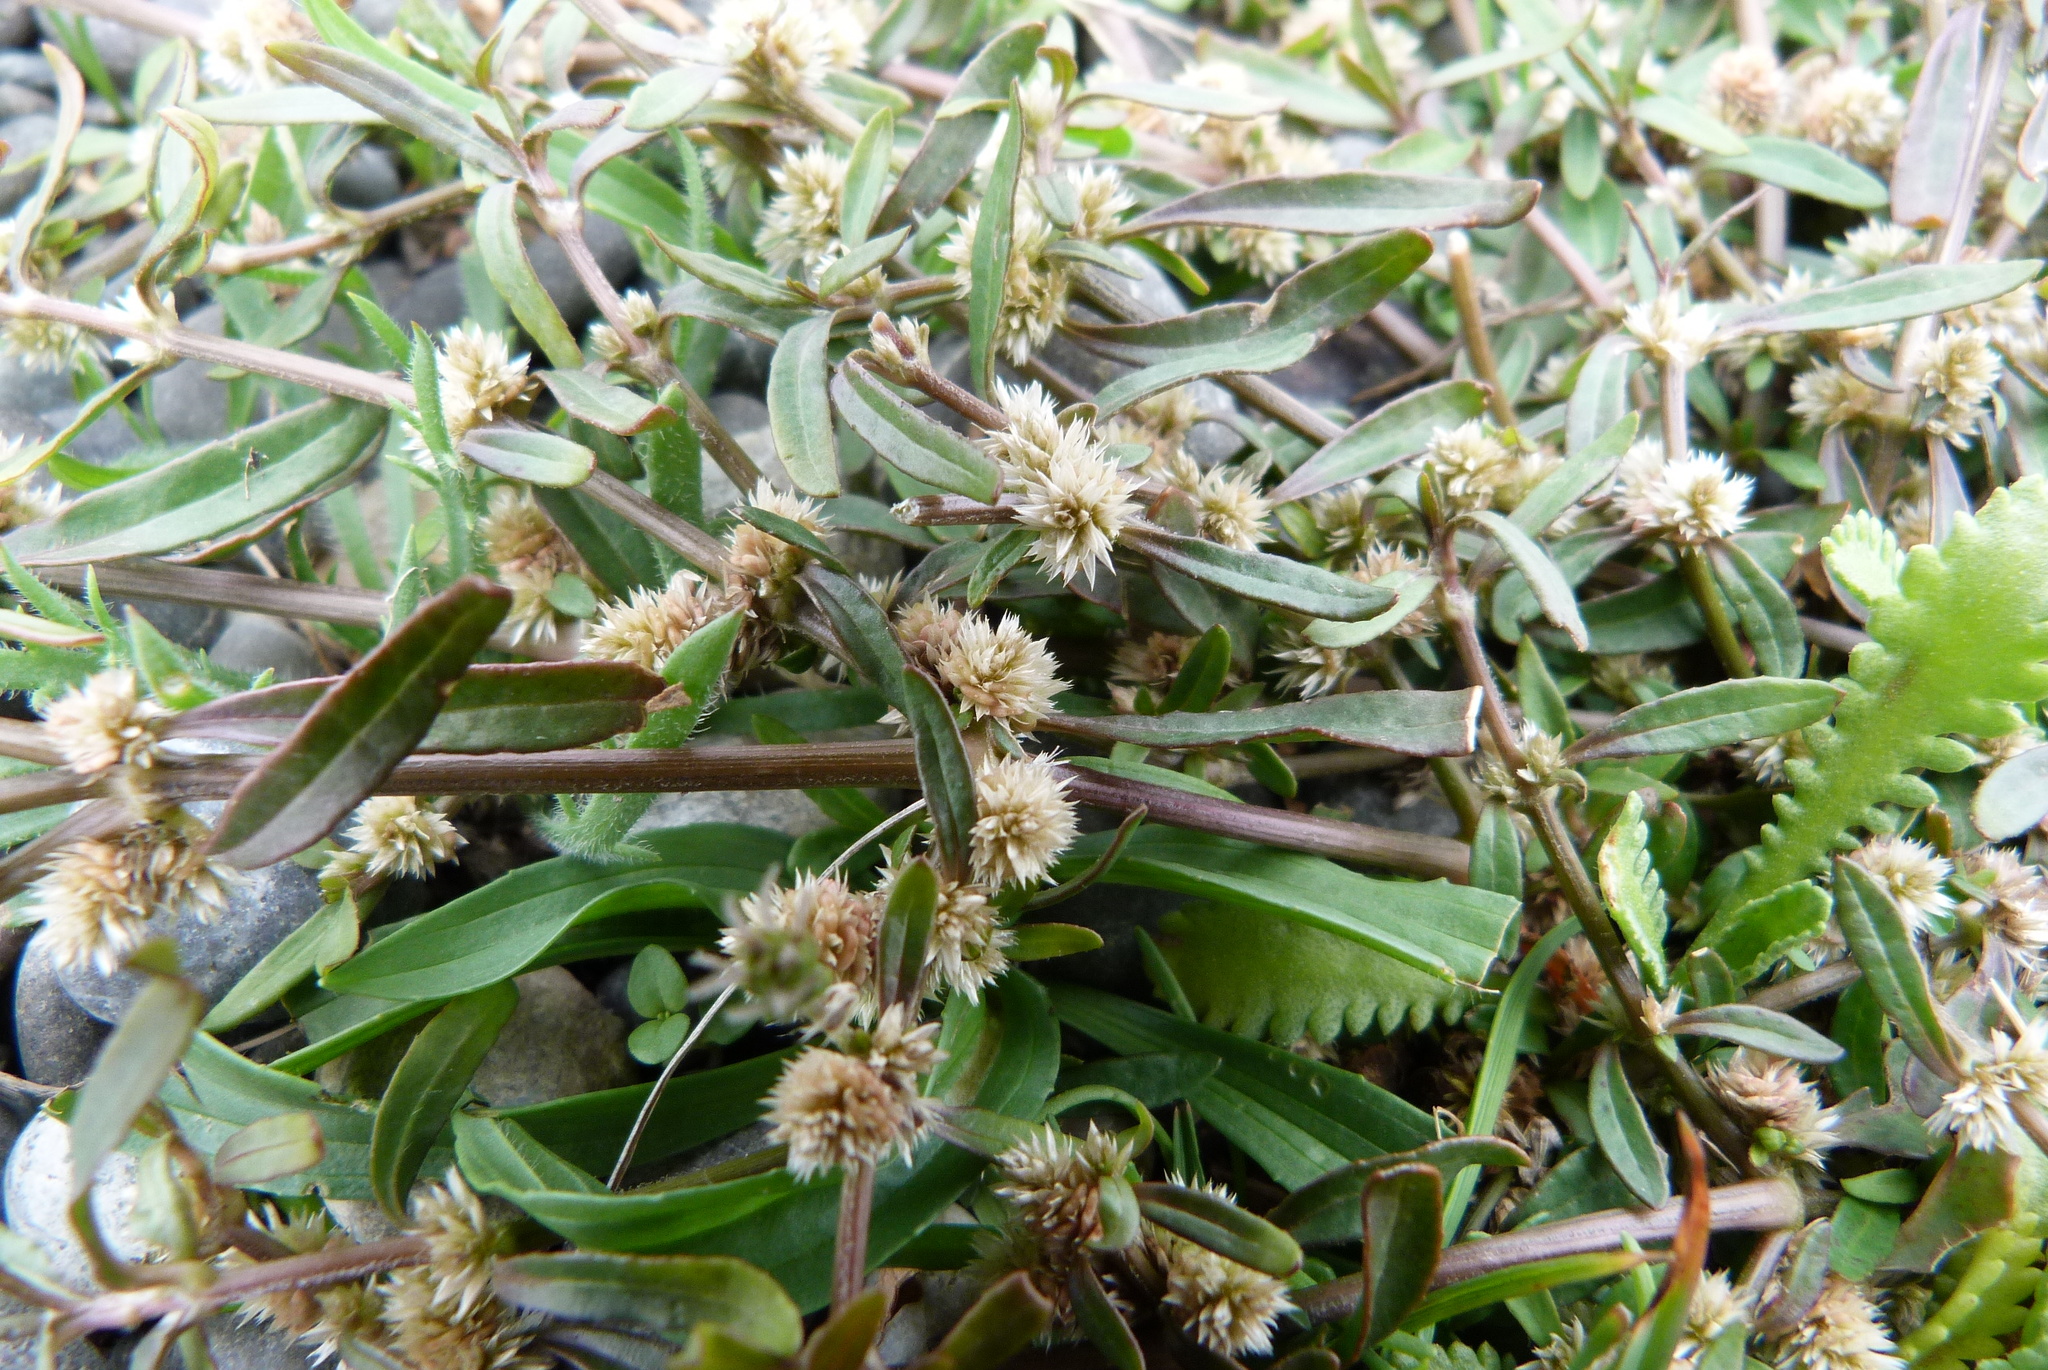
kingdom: Plantae
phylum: Tracheophyta
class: Magnoliopsida
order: Caryophyllales
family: Amaranthaceae
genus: Alternanthera
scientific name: Alternanthera nahui
